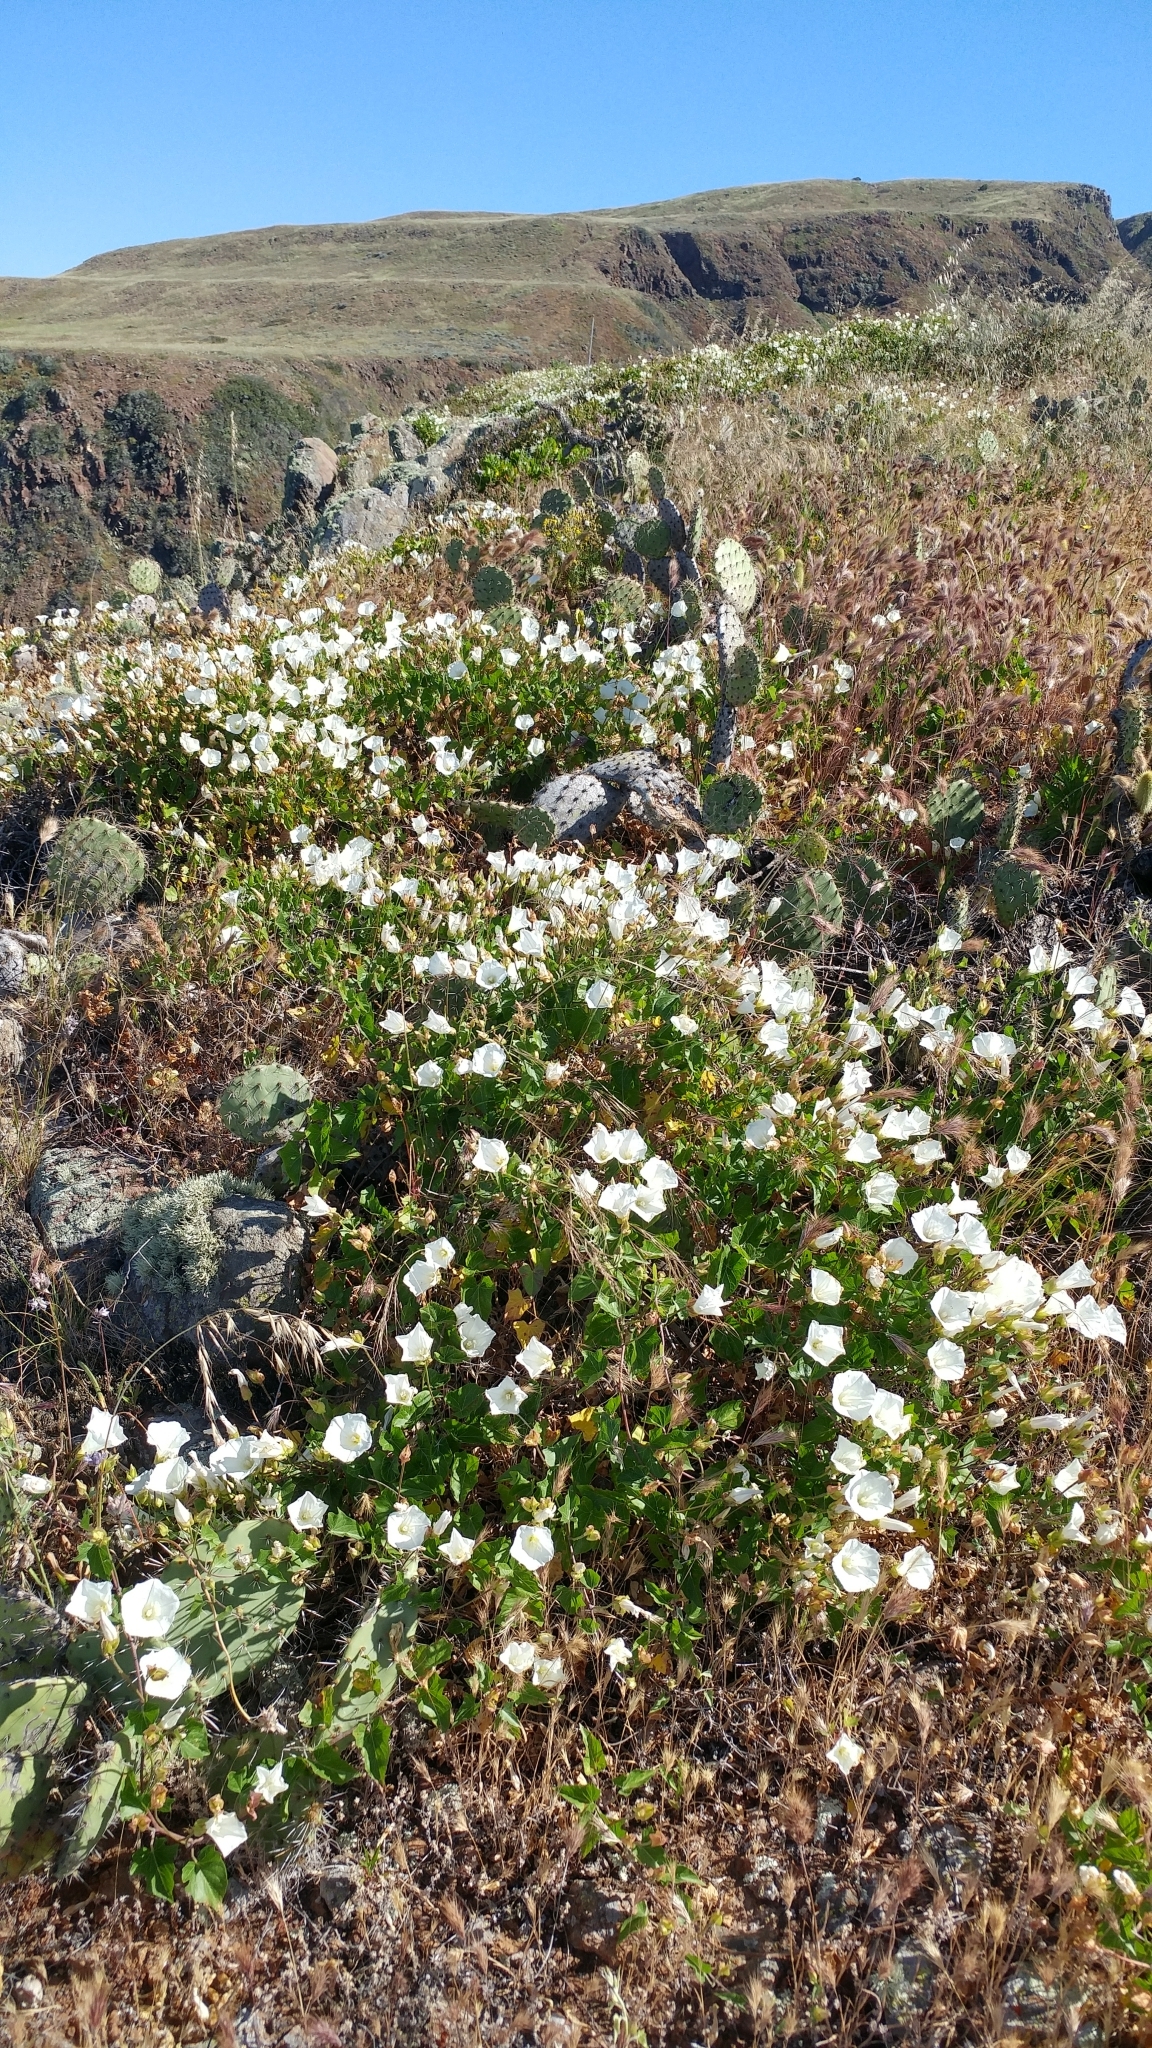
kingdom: Plantae
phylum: Tracheophyta
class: Magnoliopsida
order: Solanales
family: Convolvulaceae
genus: Calystegia
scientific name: Calystegia macrostegia
